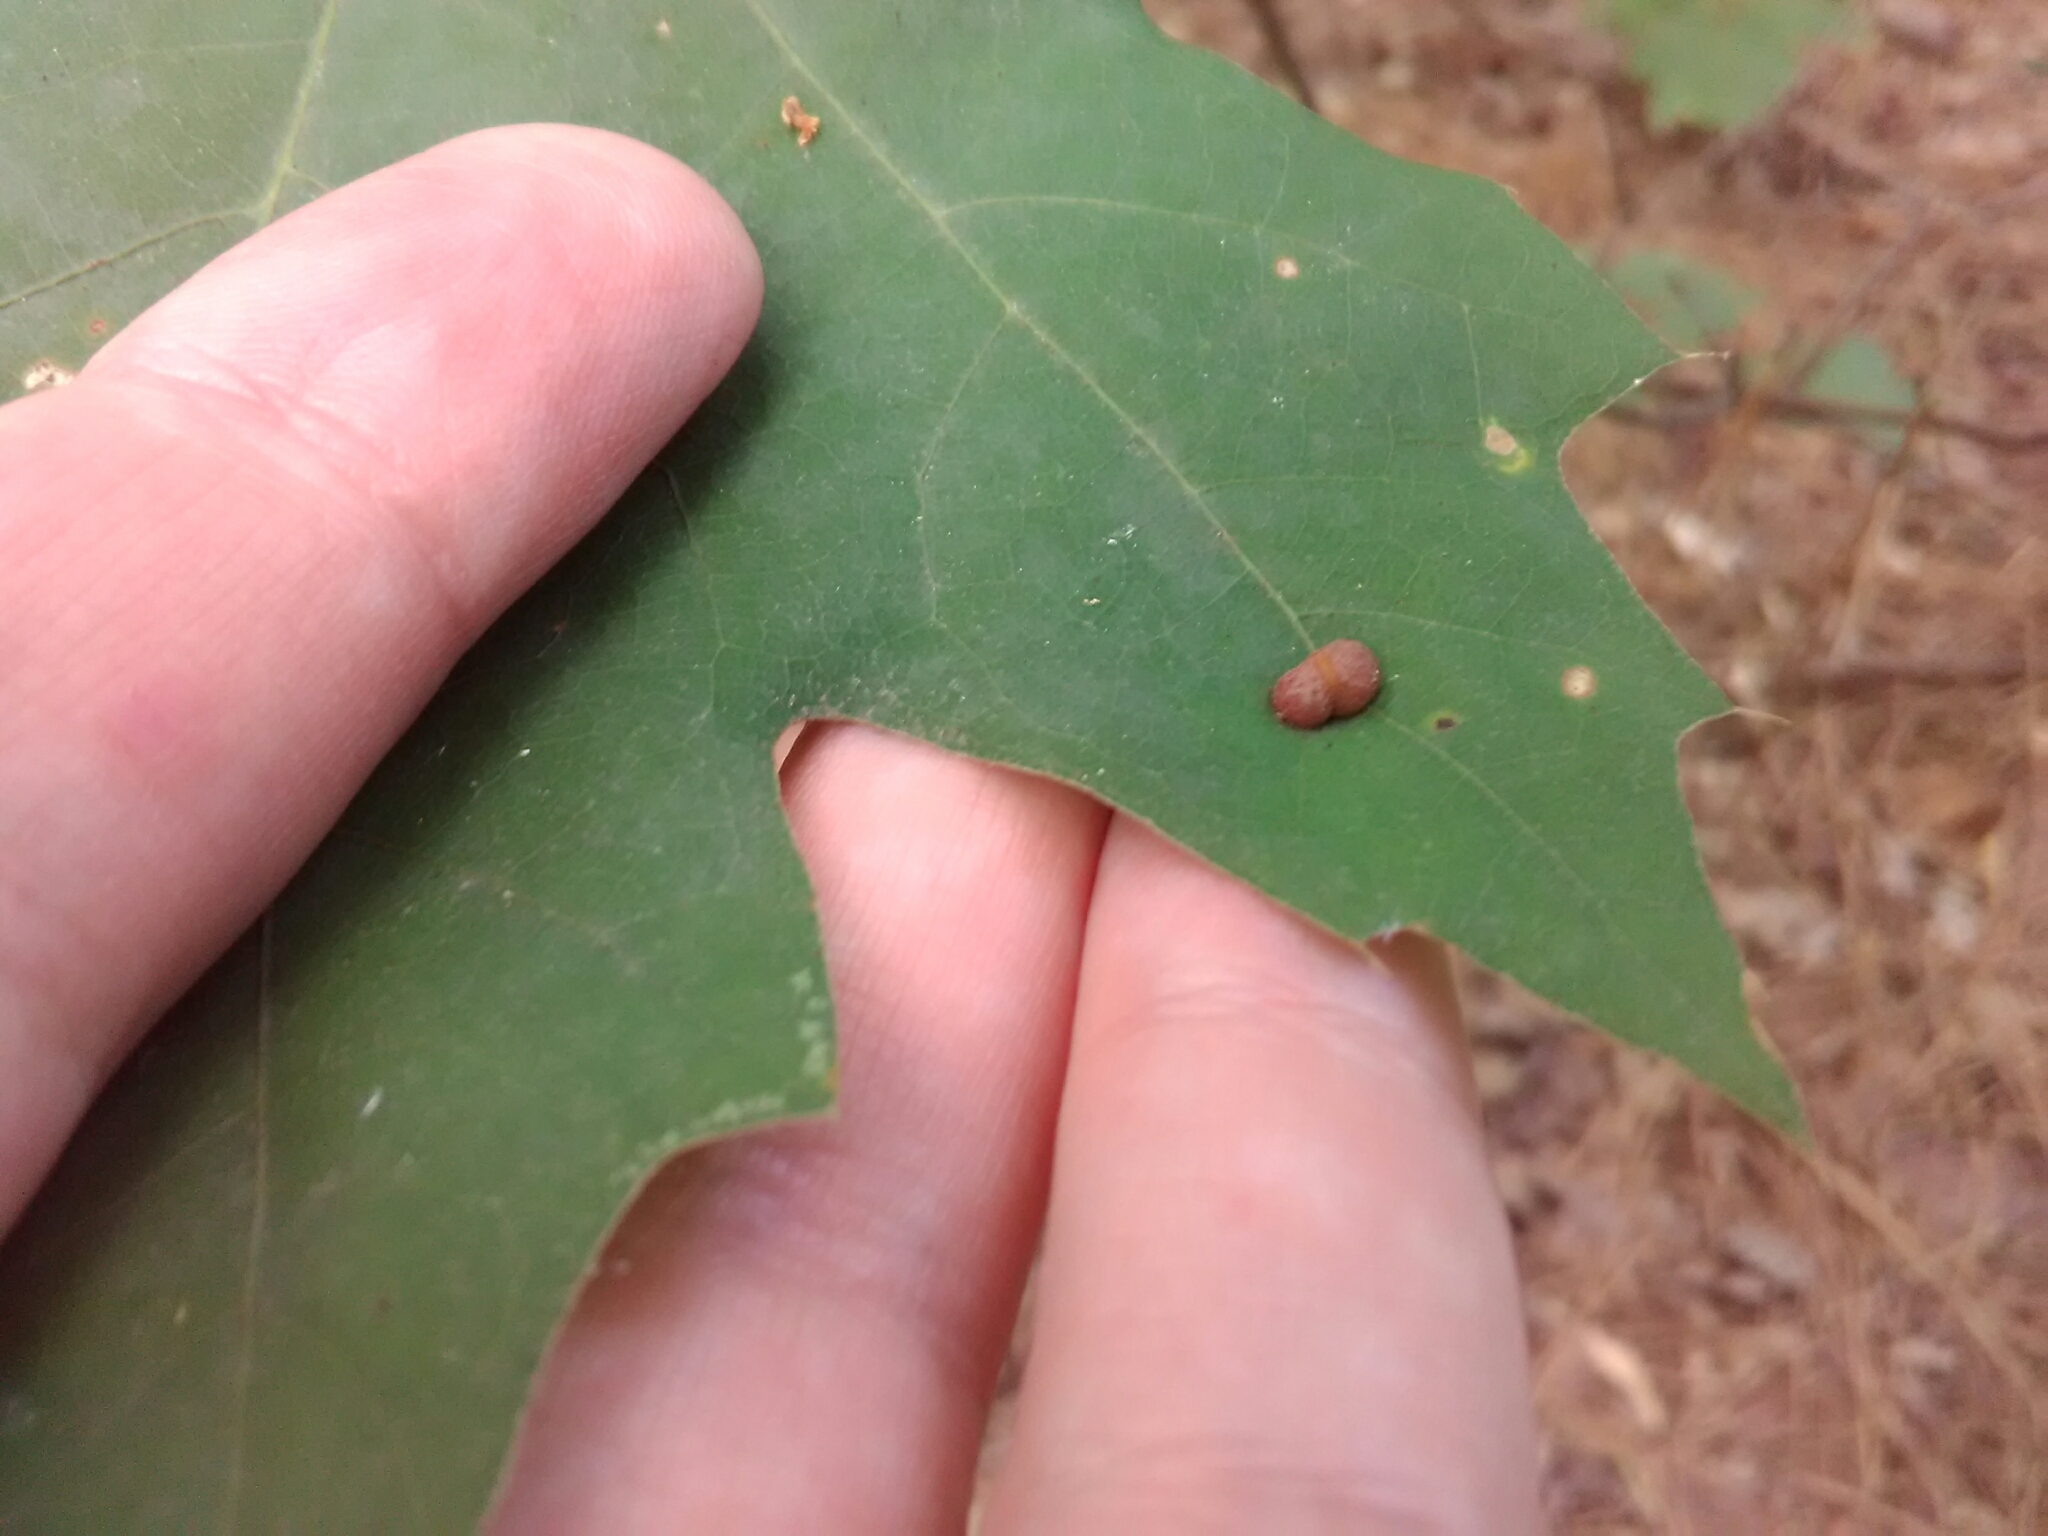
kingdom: Animalia
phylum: Arthropoda
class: Insecta
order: Diptera
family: Cecidomyiidae
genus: Polystepha
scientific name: Polystepha pilulae
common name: Oak leaf gall midge
